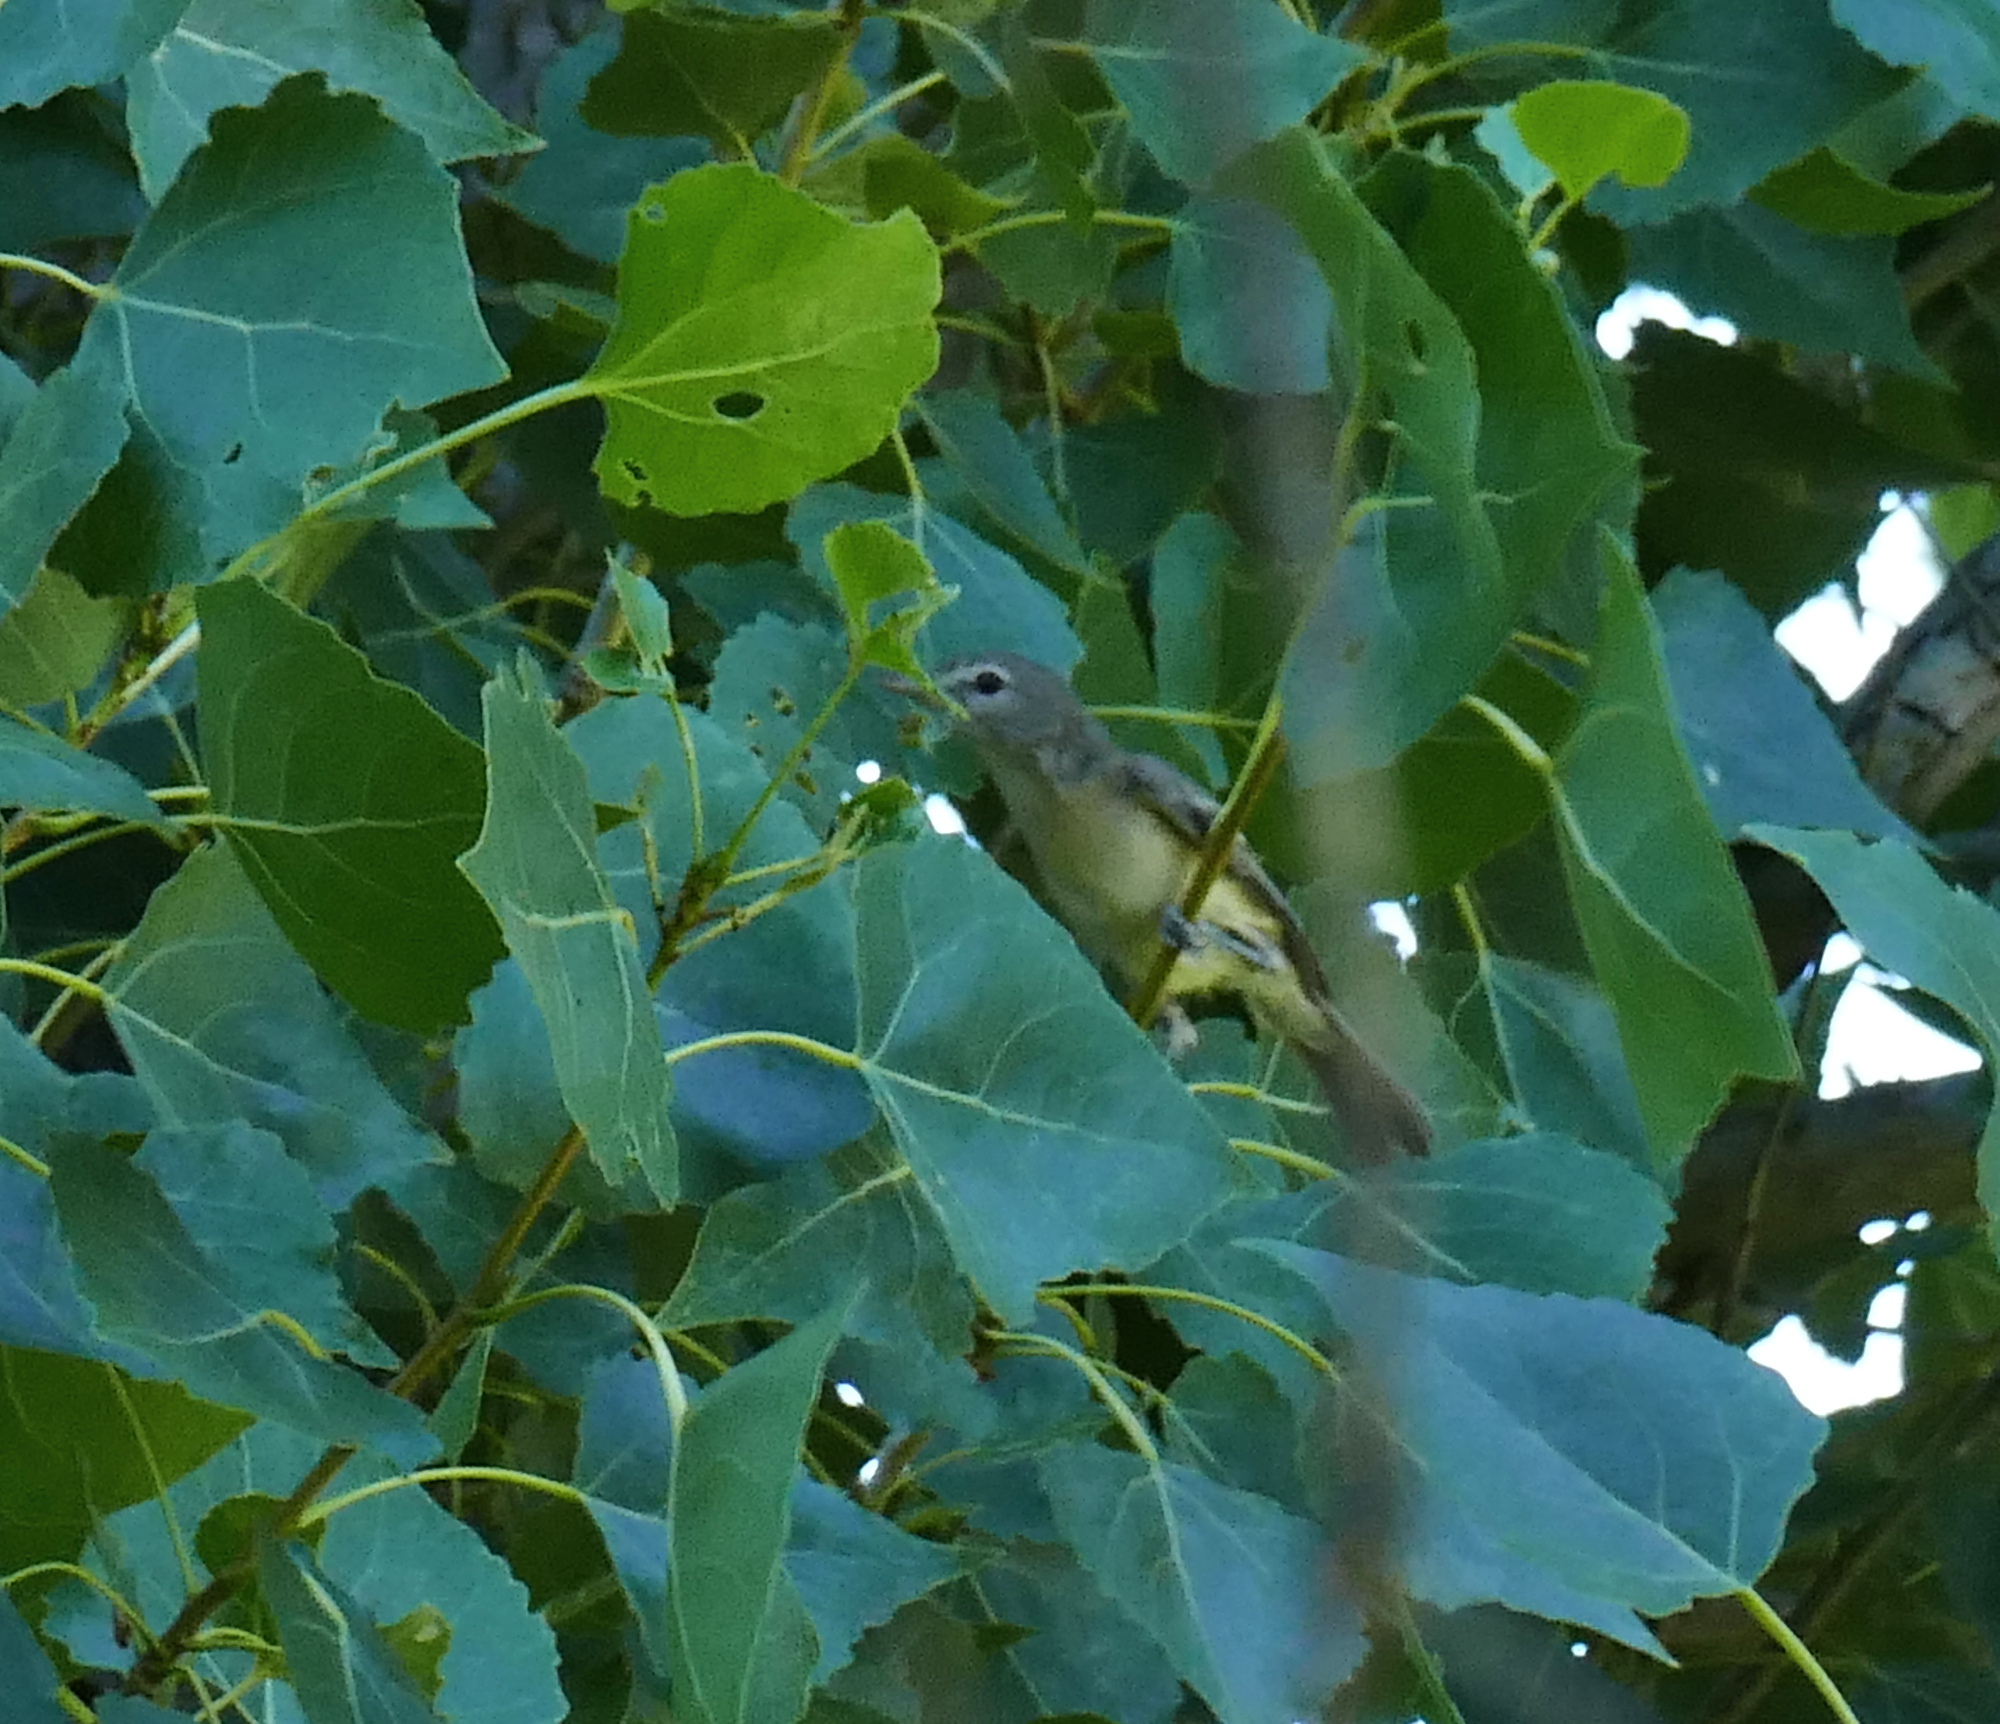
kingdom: Animalia
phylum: Chordata
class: Aves
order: Passeriformes
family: Vireonidae
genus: Vireo
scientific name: Vireo bellii
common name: Bell's vireo
